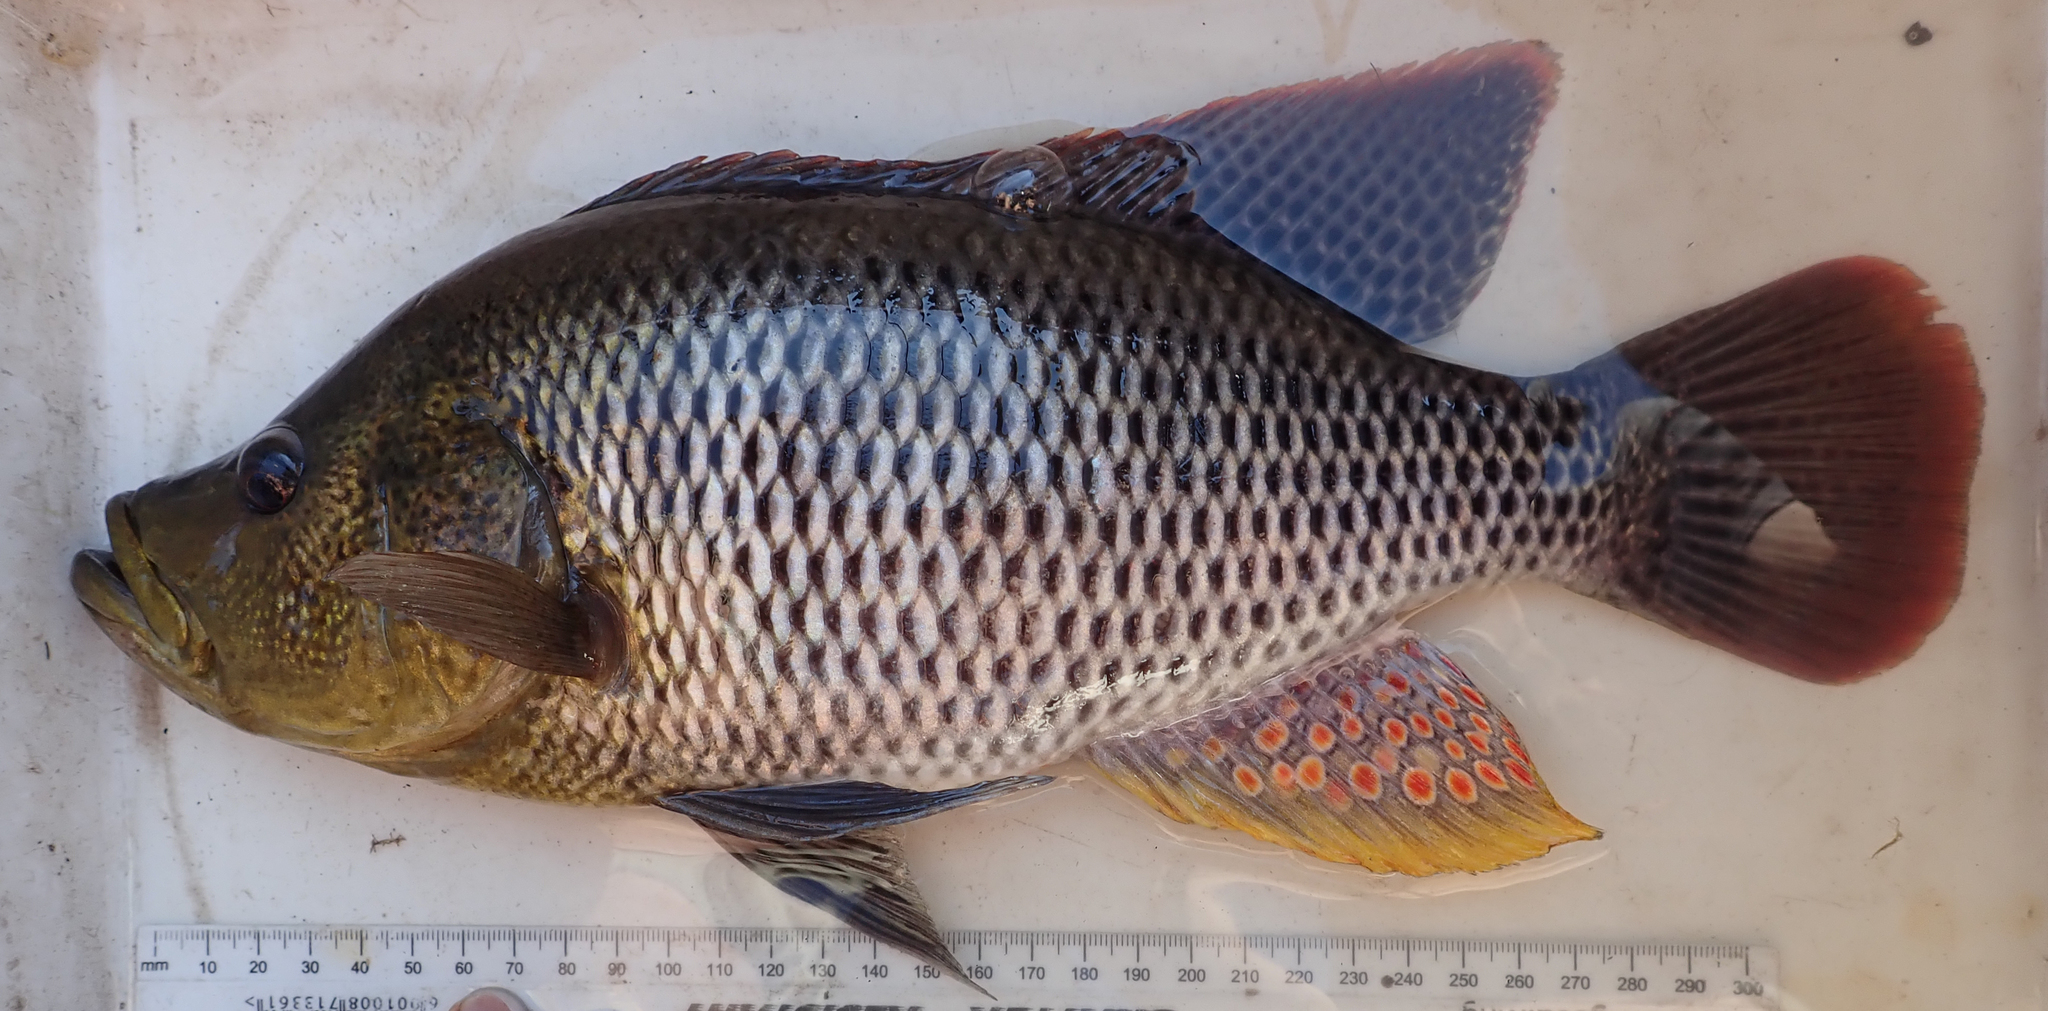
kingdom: Animalia
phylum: Chordata
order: Perciformes
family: Cichlidae
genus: Serranochromis
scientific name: Serranochromis altus
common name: Humpback largemouth
